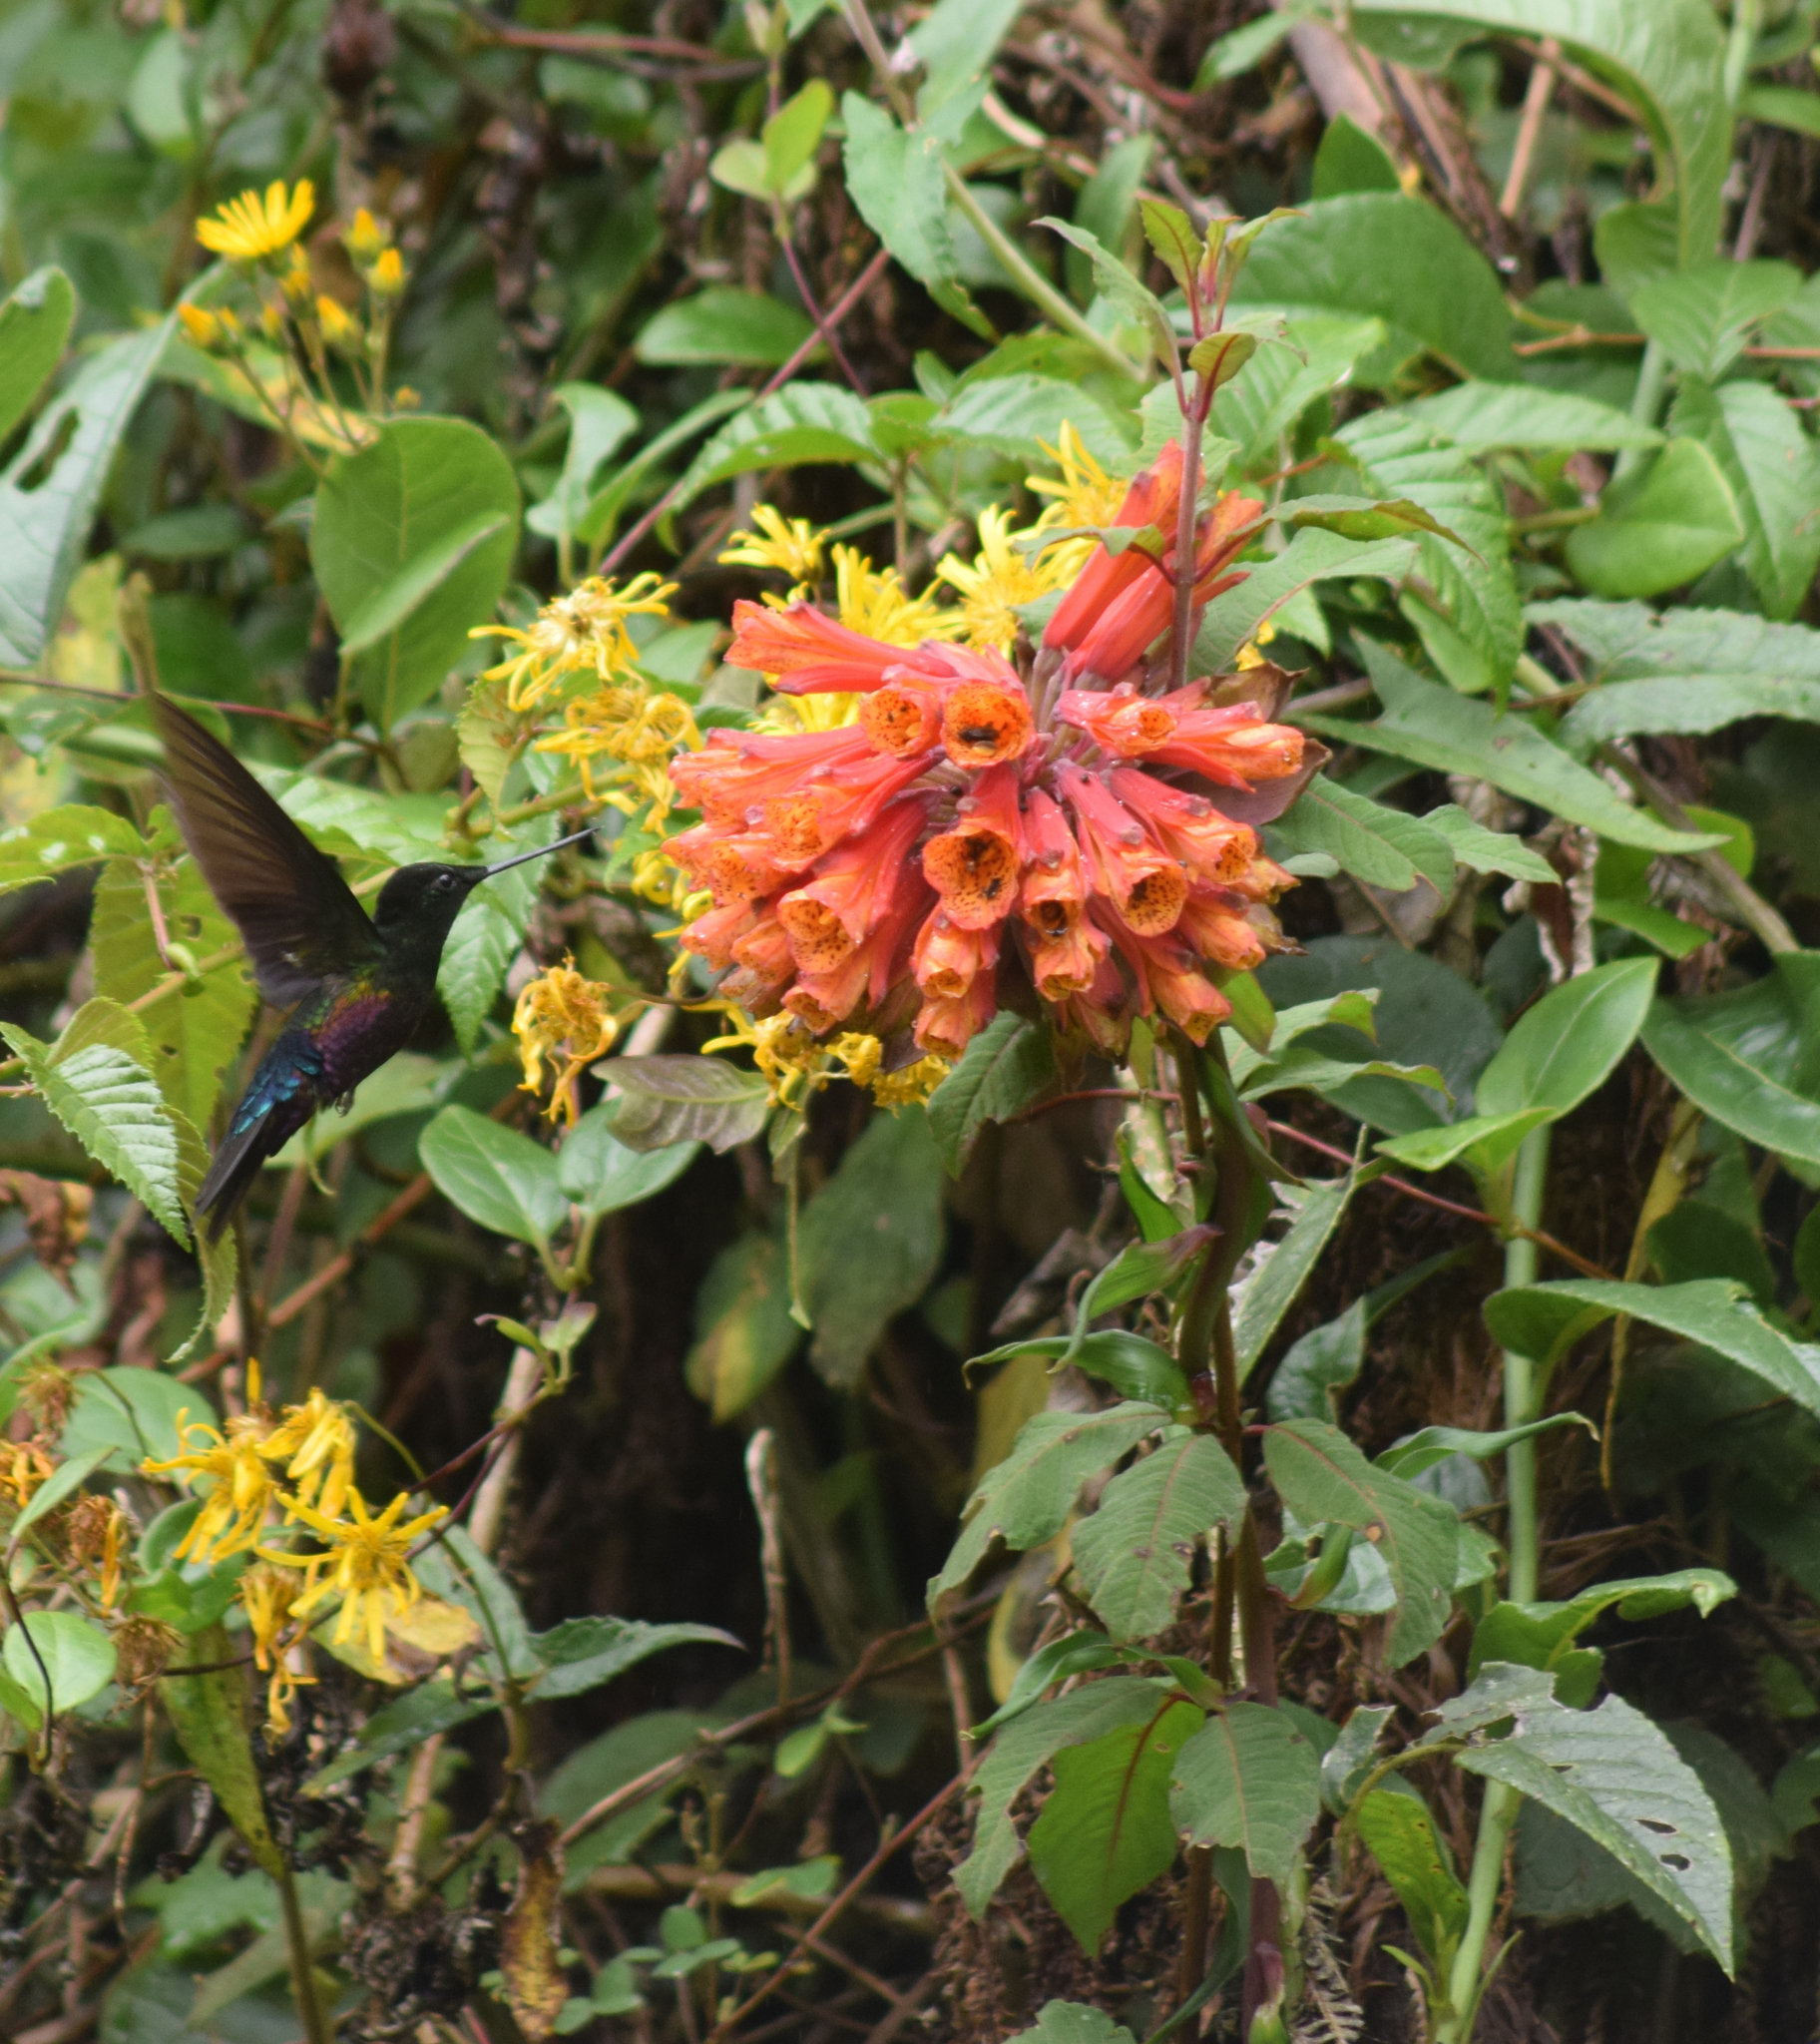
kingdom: Plantae
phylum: Tracheophyta
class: Liliopsida
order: Liliales
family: Alstroemeriaceae
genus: Bomarea
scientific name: Bomarea multiflora
